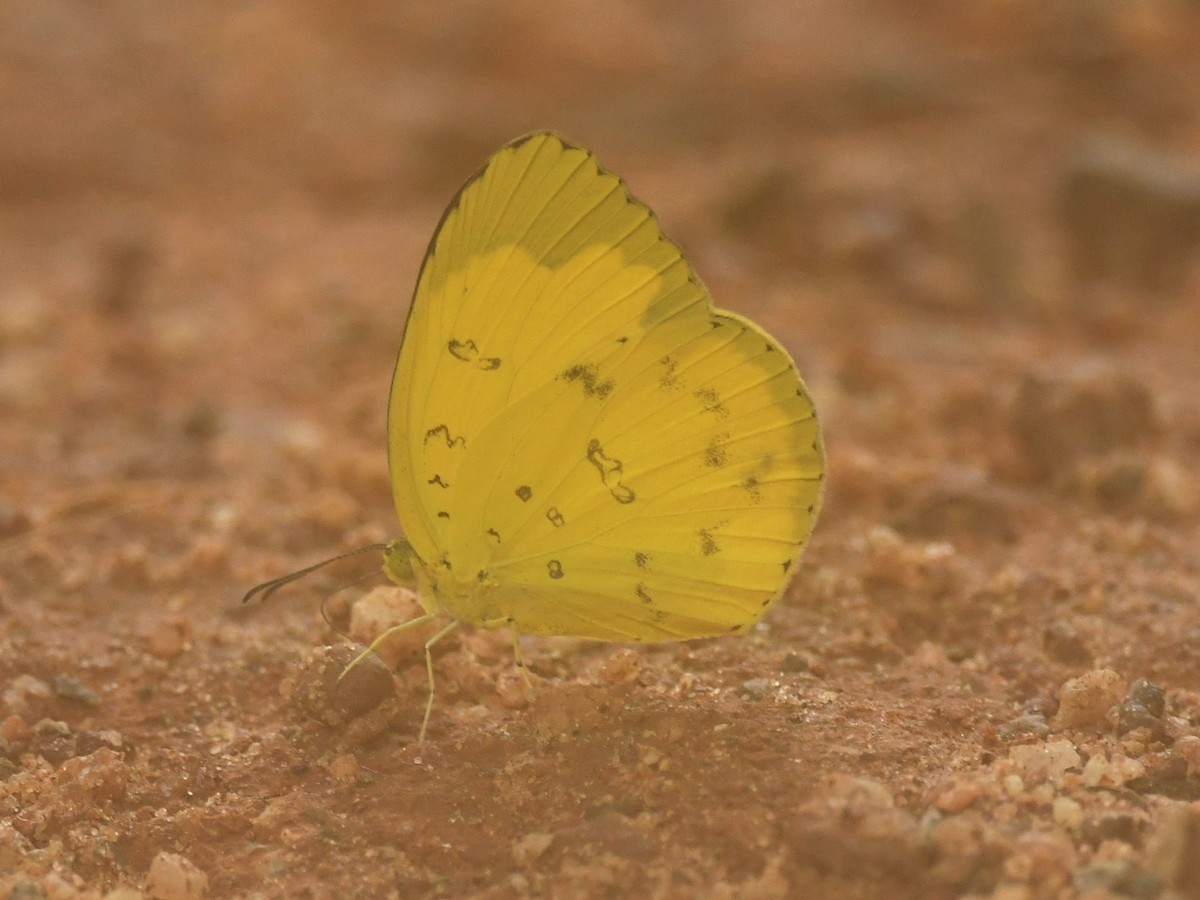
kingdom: Animalia
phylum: Arthropoda
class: Insecta
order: Lepidoptera
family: Pieridae
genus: Eurema
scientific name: Eurema hecabe
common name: Pale grass yellow
